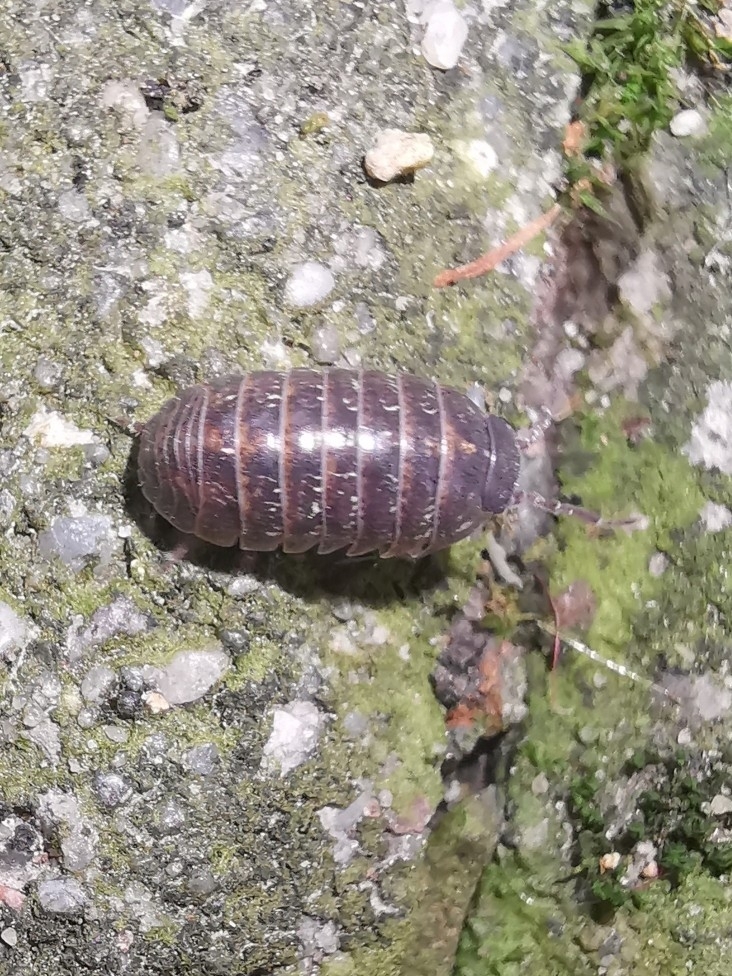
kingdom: Animalia
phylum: Arthropoda
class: Malacostraca
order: Isopoda
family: Armadillidiidae
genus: Armadillidium
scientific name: Armadillidium vulgare
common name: Common pill woodlouse
